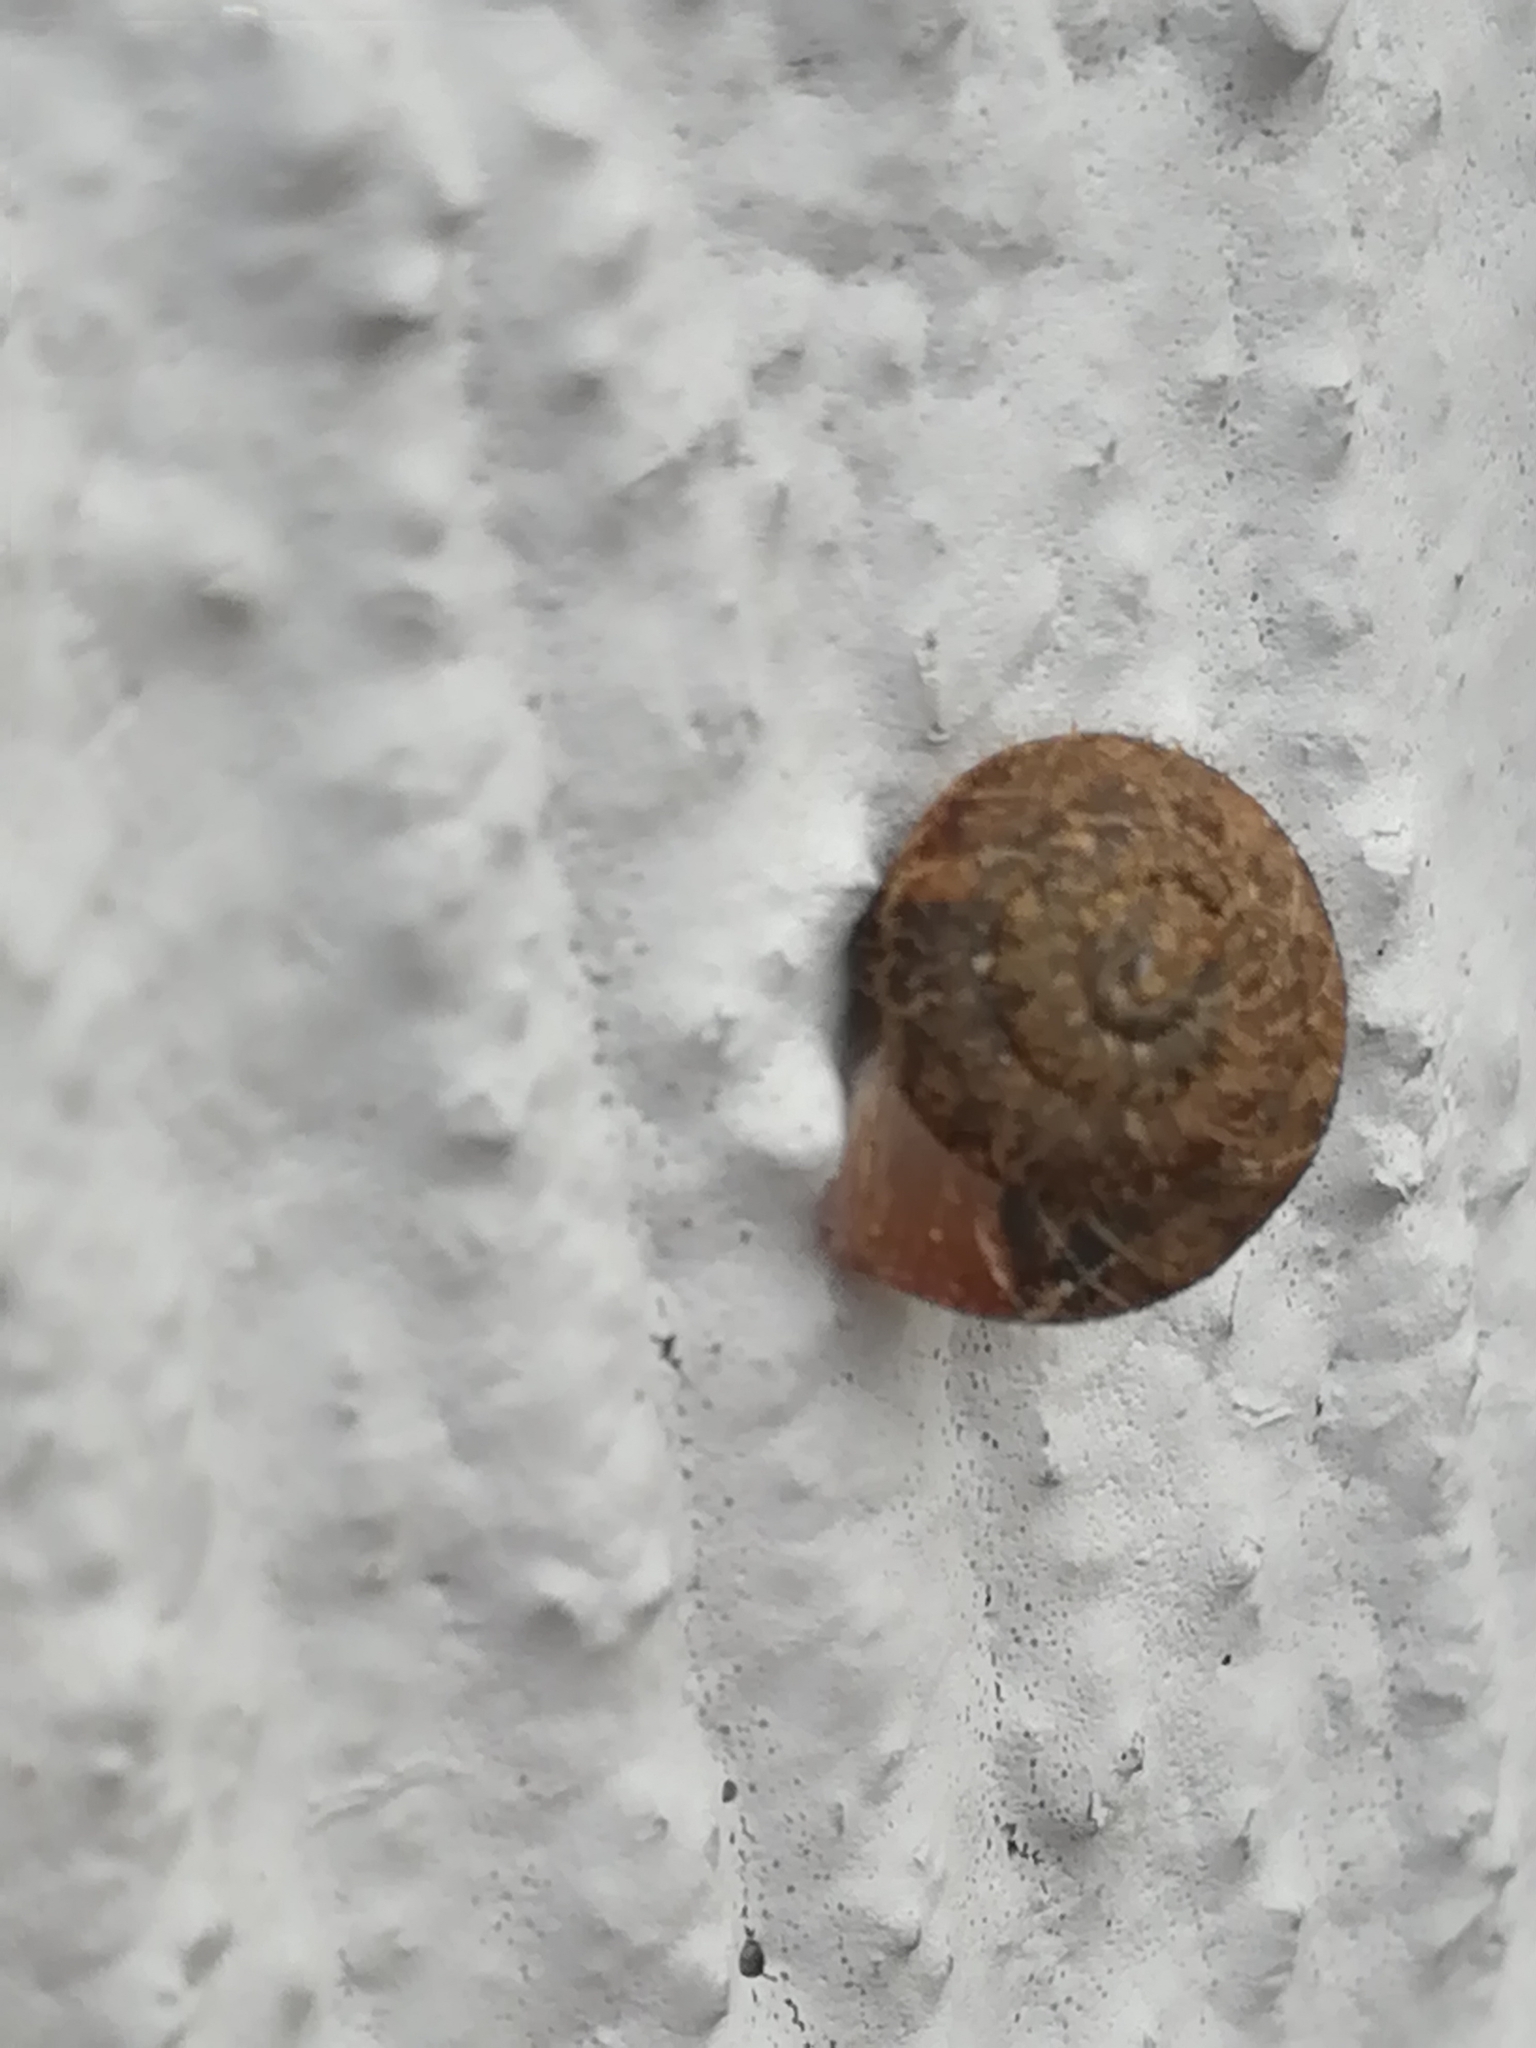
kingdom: Animalia
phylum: Mollusca
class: Gastropoda
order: Stylommatophora
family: Geomitridae
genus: Xerotricha
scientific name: Xerotricha conspurcata
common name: Snail
